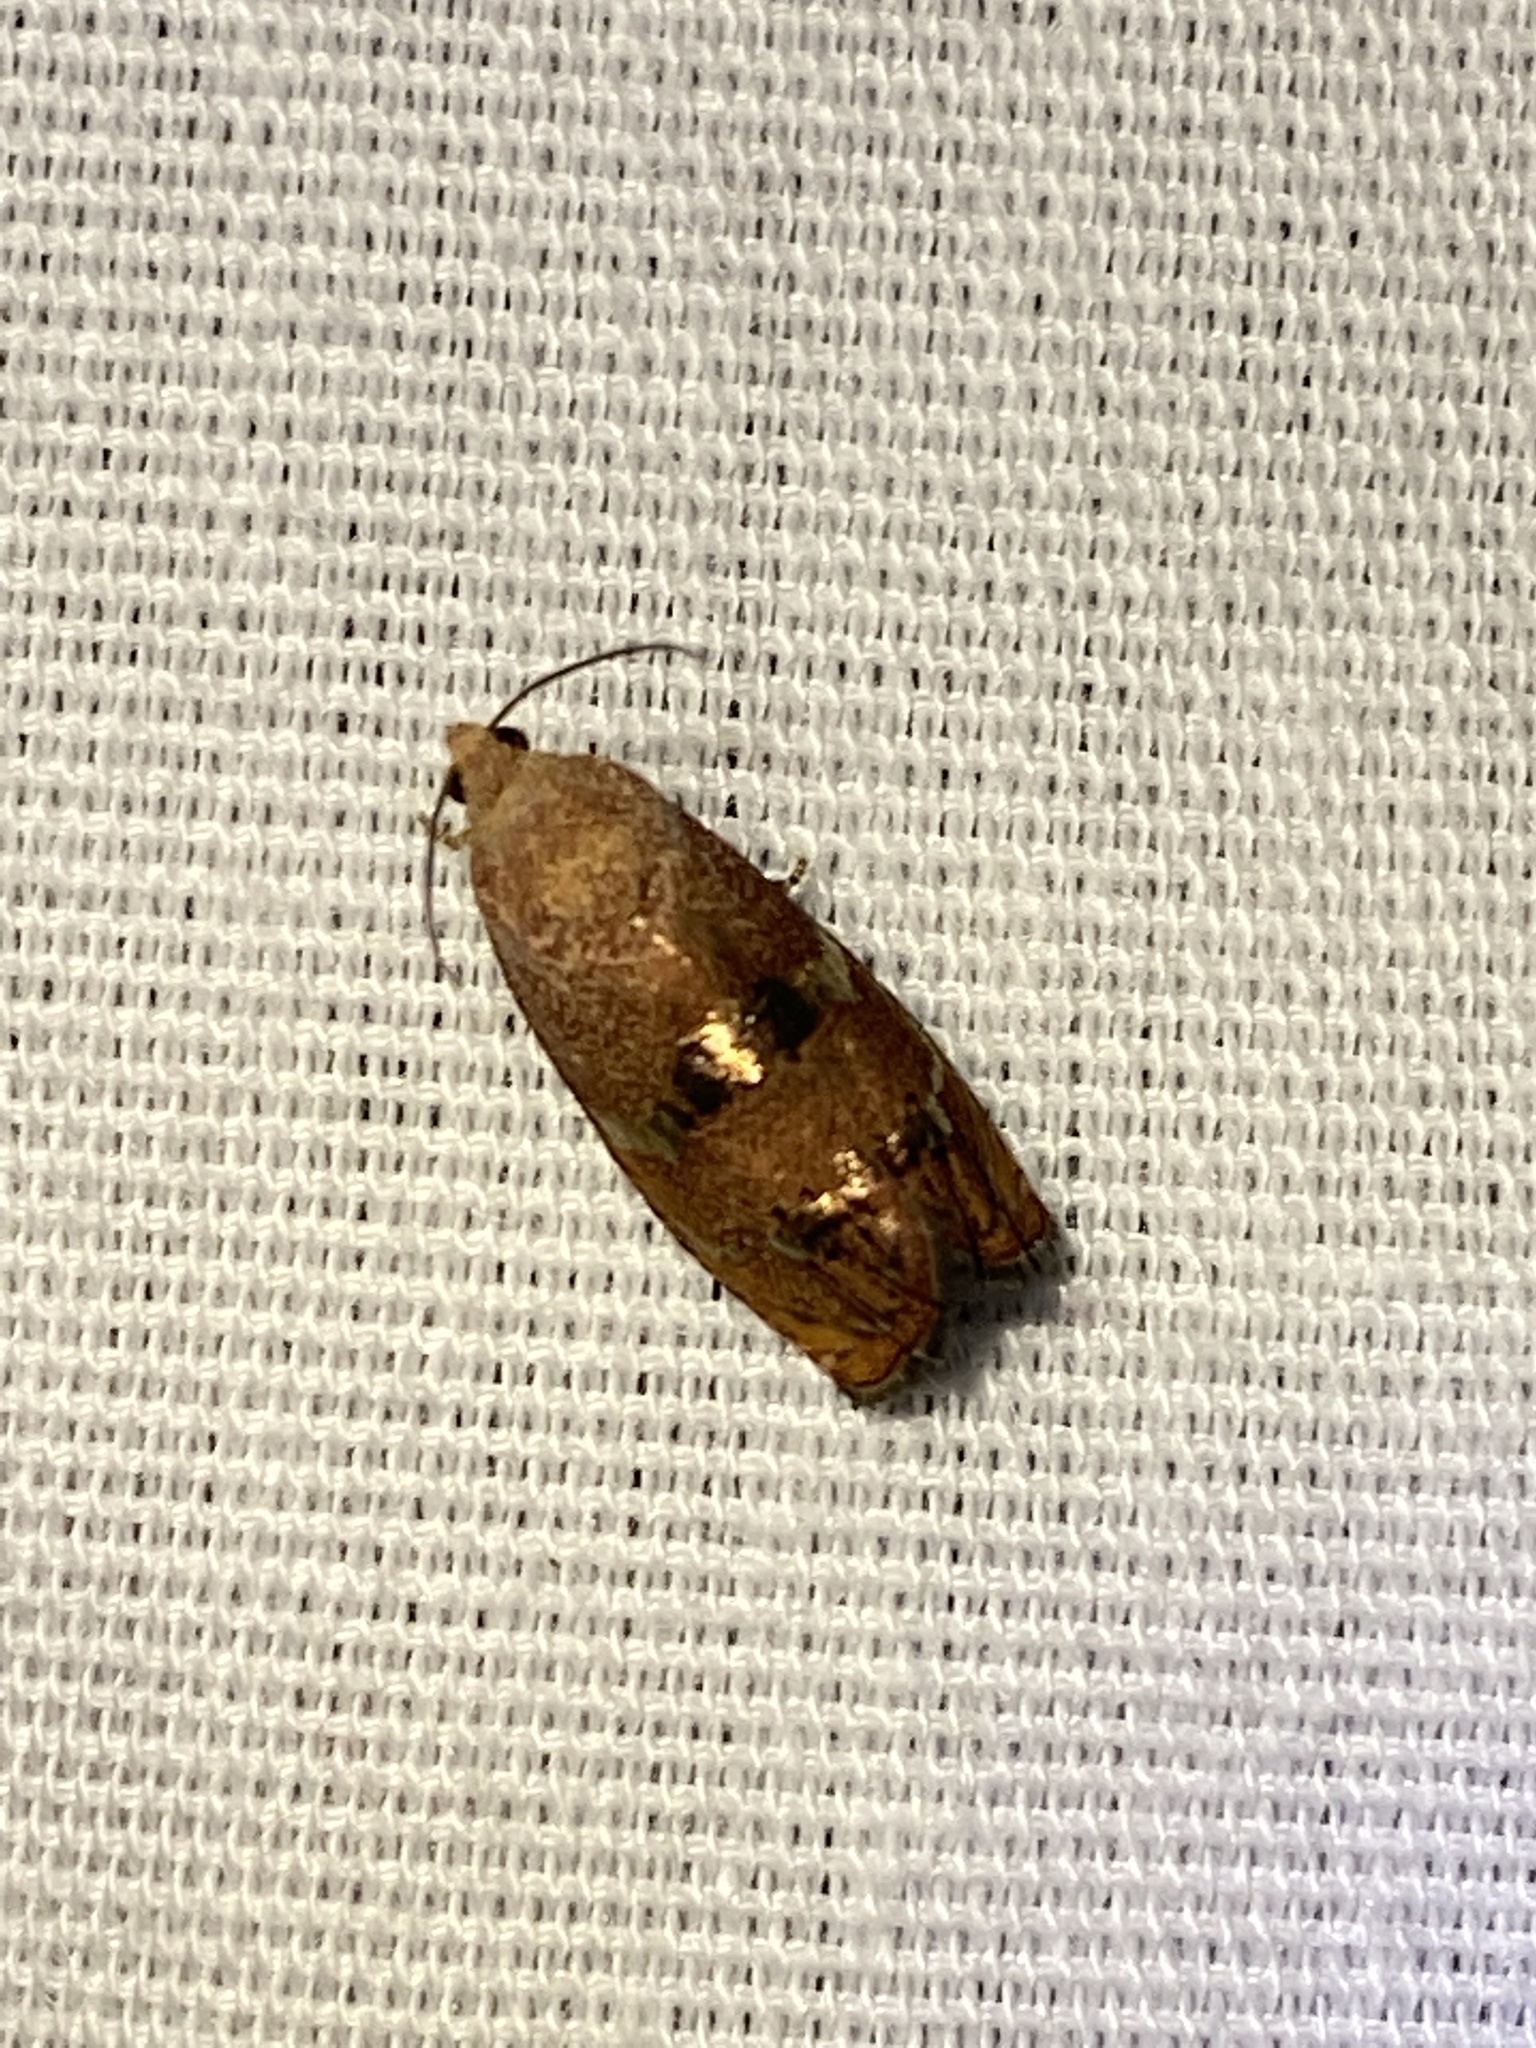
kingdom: Animalia
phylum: Arthropoda
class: Insecta
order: Lepidoptera
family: Tortricidae
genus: Cydia
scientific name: Cydia latiferreana
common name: Filbertworm moth
